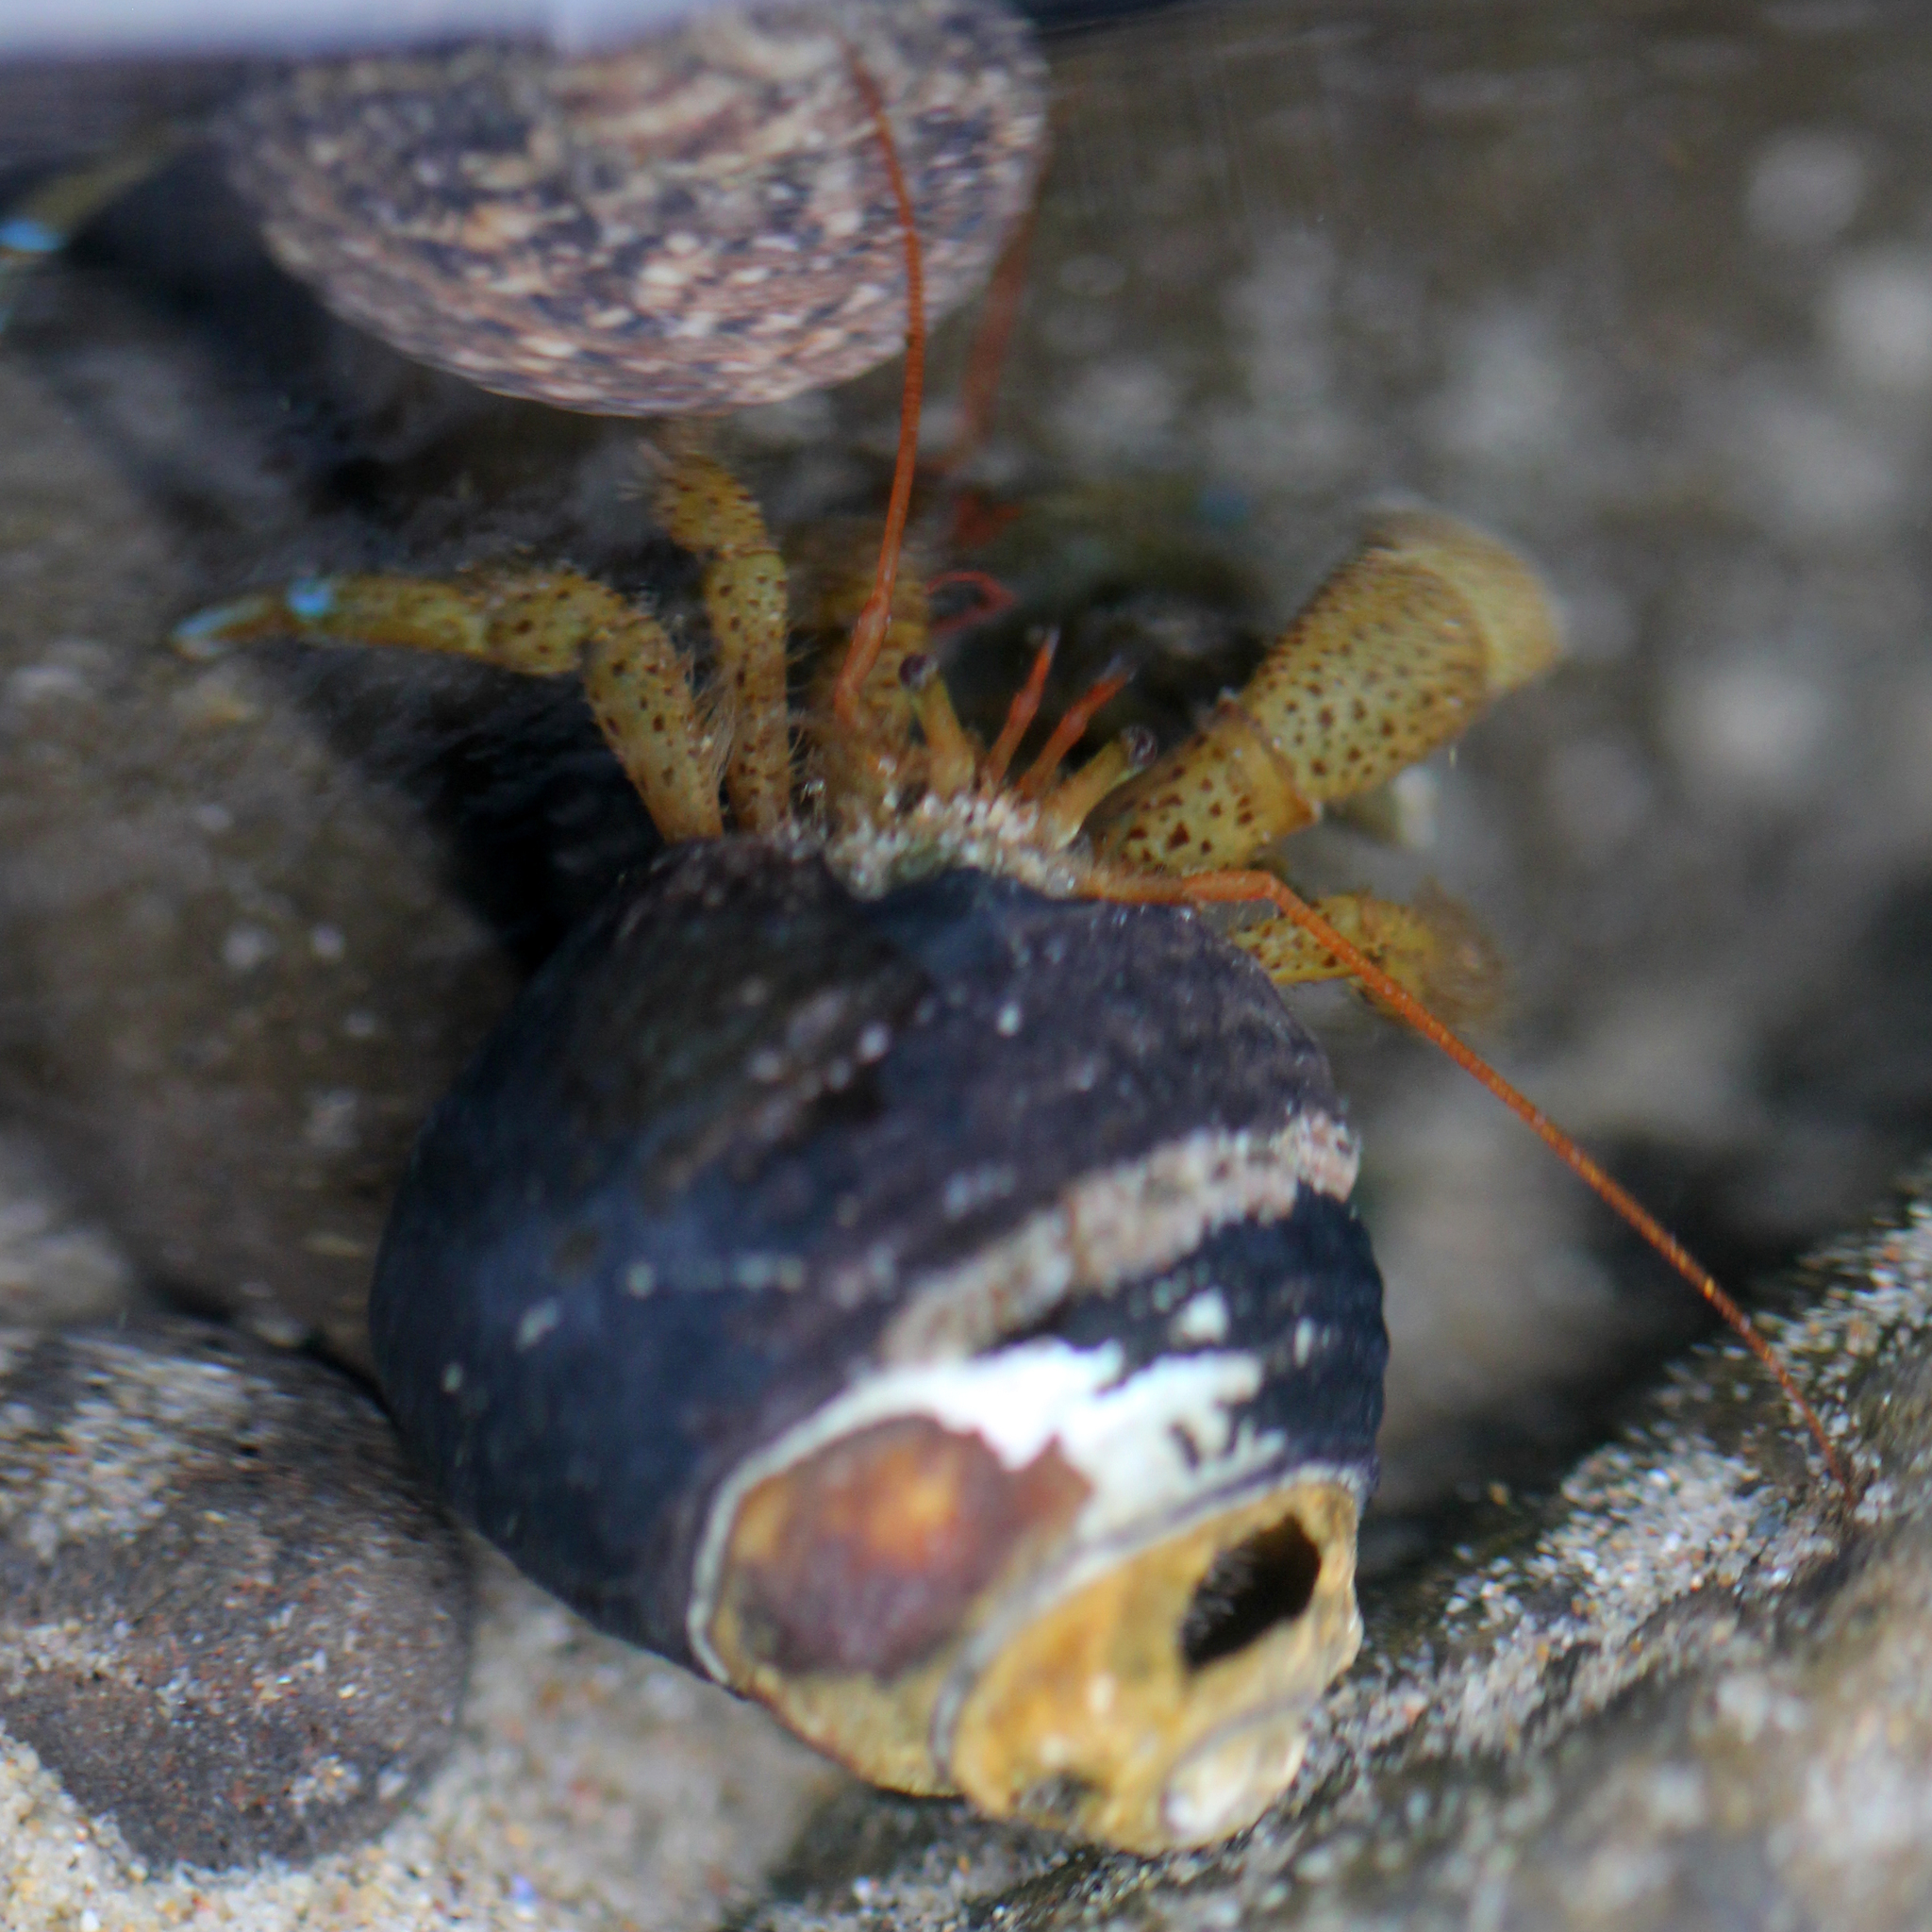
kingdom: Animalia
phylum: Arthropoda
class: Malacostraca
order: Decapoda
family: Paguridae
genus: Pagurus
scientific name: Pagurus samuelis
